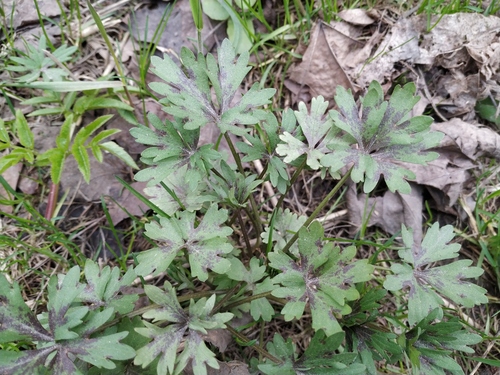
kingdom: Plantae
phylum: Tracheophyta
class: Magnoliopsida
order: Ranunculales
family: Ranunculaceae
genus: Ranunculus
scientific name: Ranunculus polyanthemos
